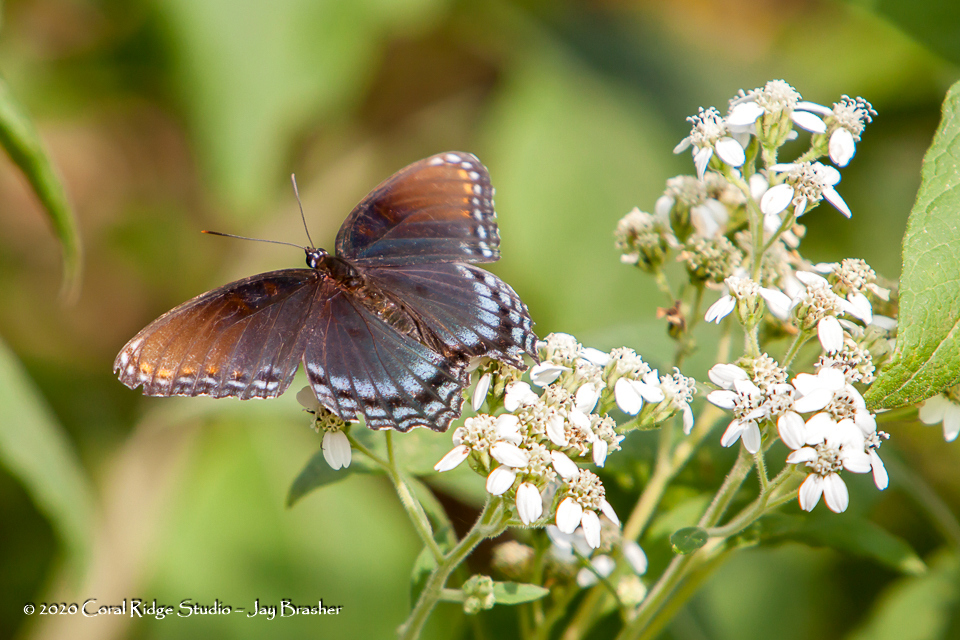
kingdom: Animalia
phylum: Arthropoda
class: Insecta
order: Lepidoptera
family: Nymphalidae
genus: Limenitis
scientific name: Limenitis astyanax
